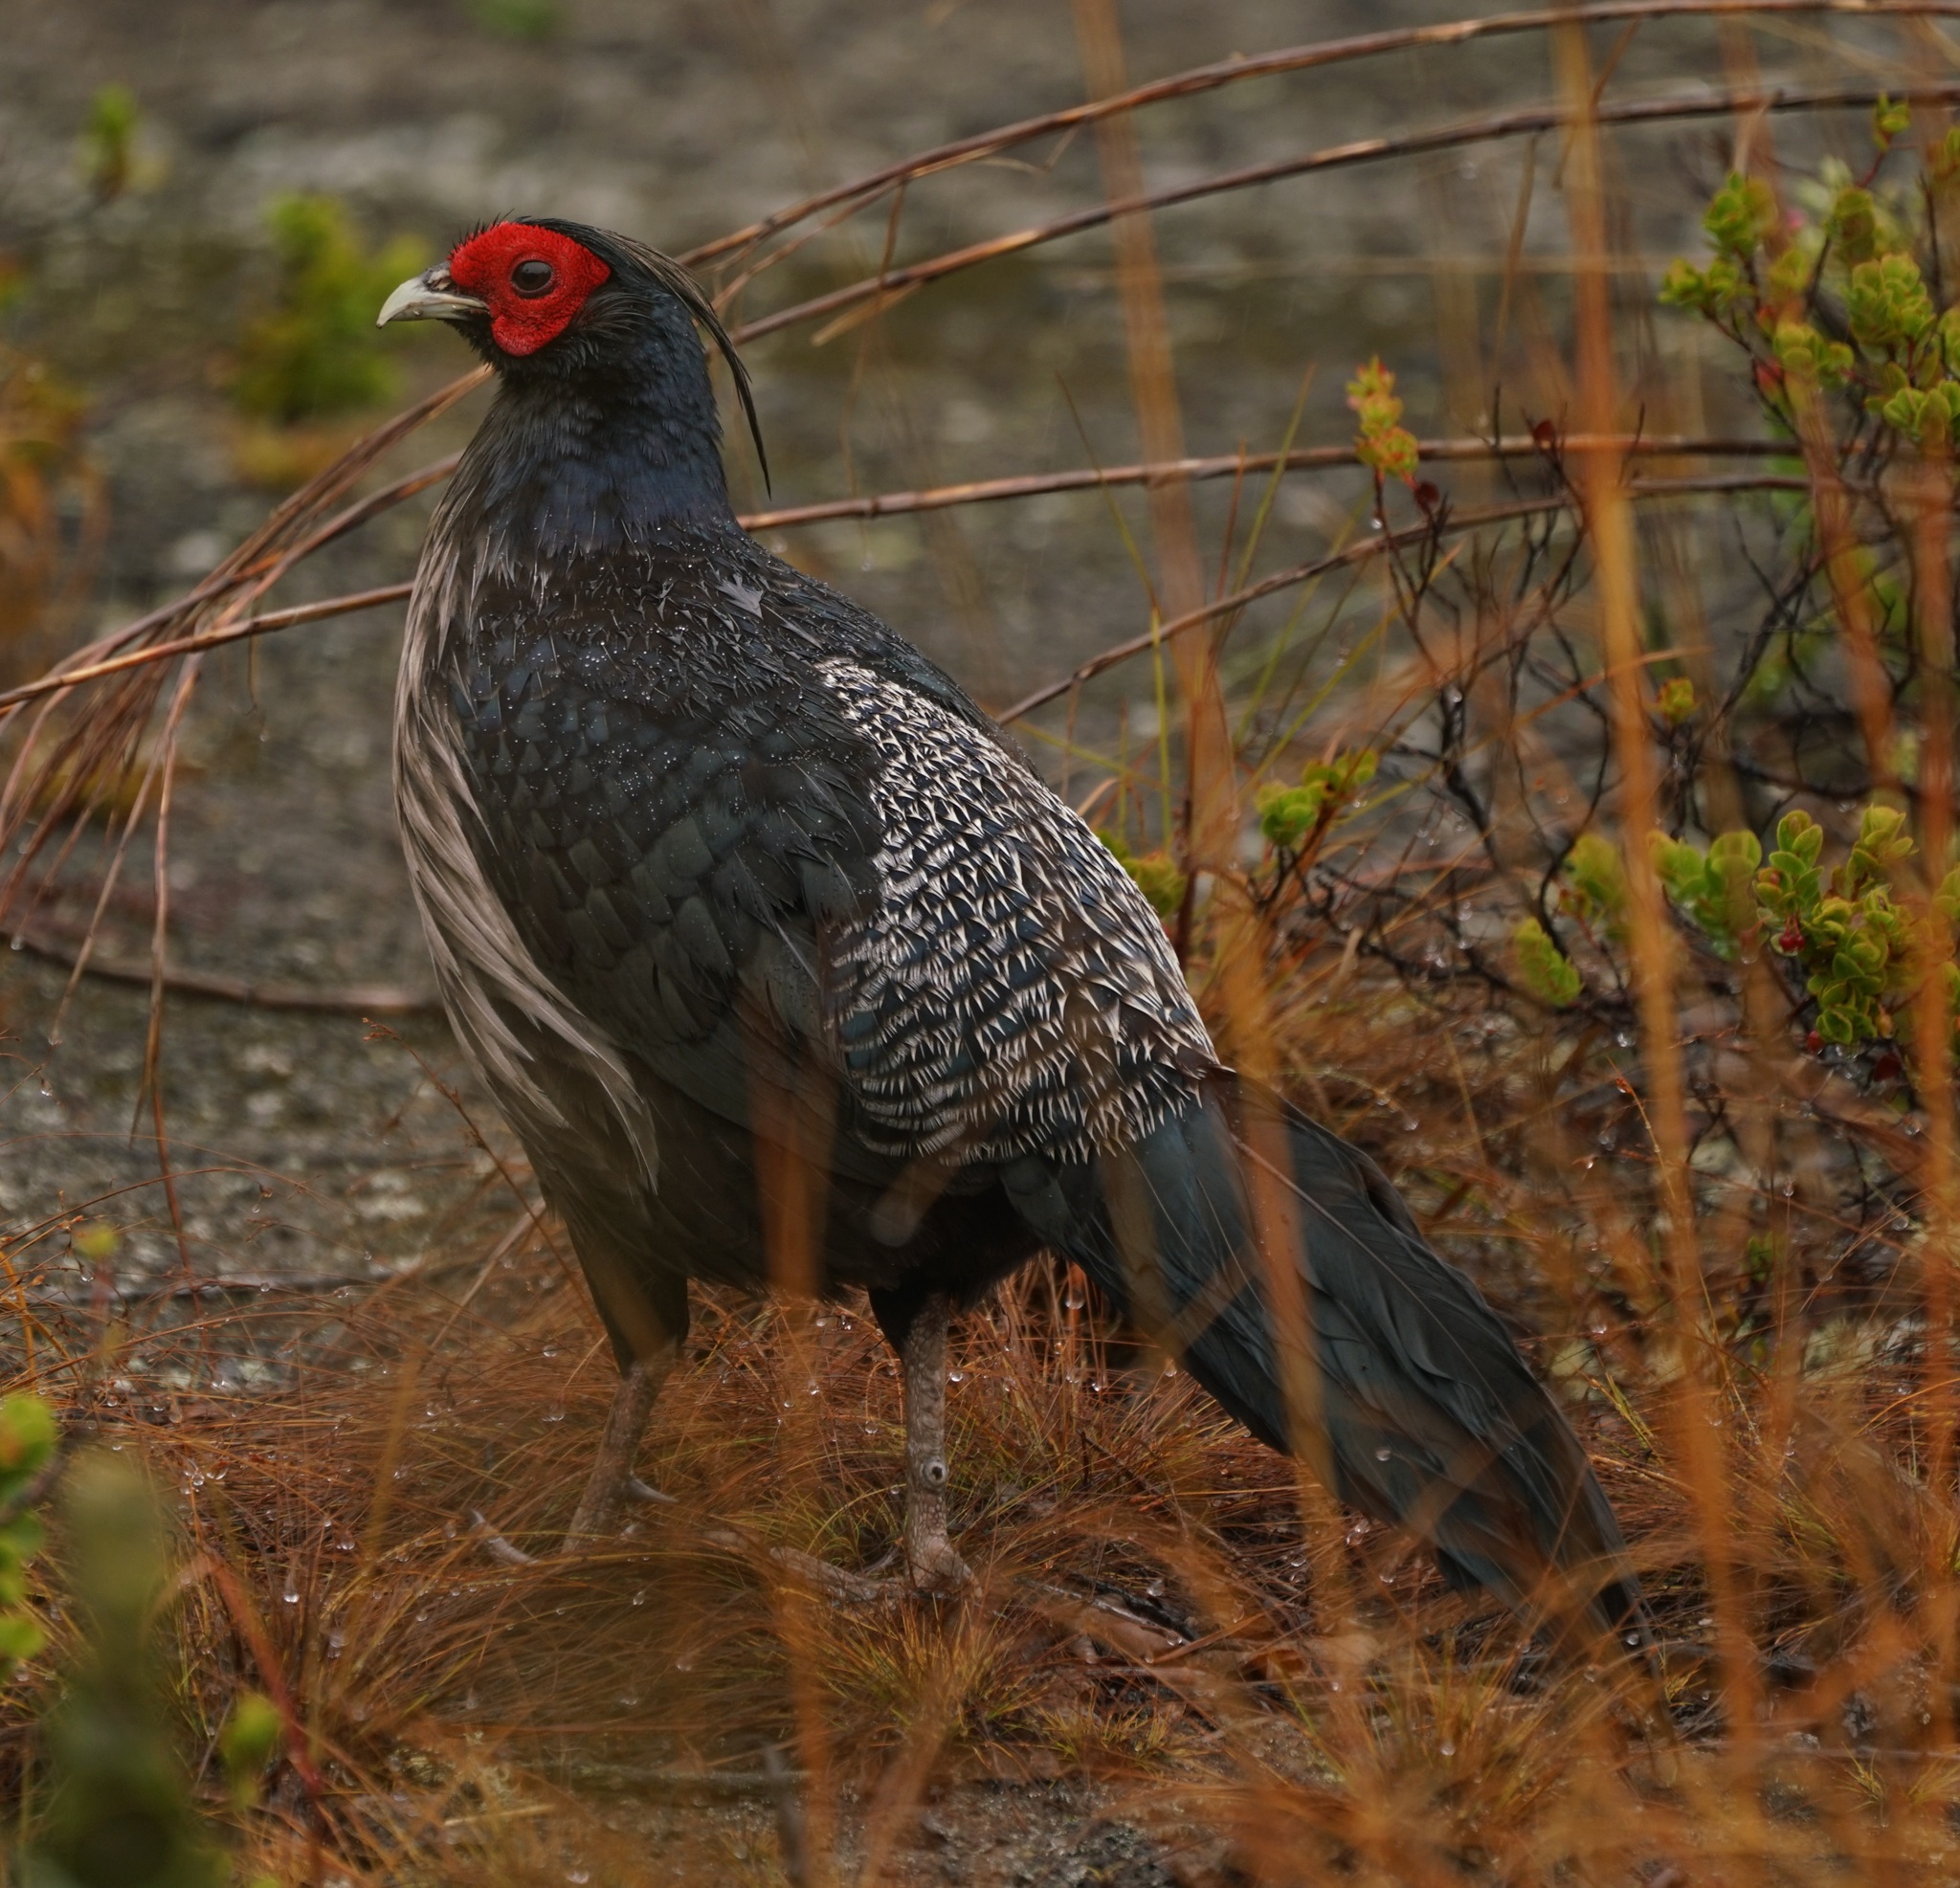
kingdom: Animalia
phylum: Chordata
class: Aves
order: Galliformes
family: Phasianidae
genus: Lophura
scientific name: Lophura leucomelanos
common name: Kalij pheasant
